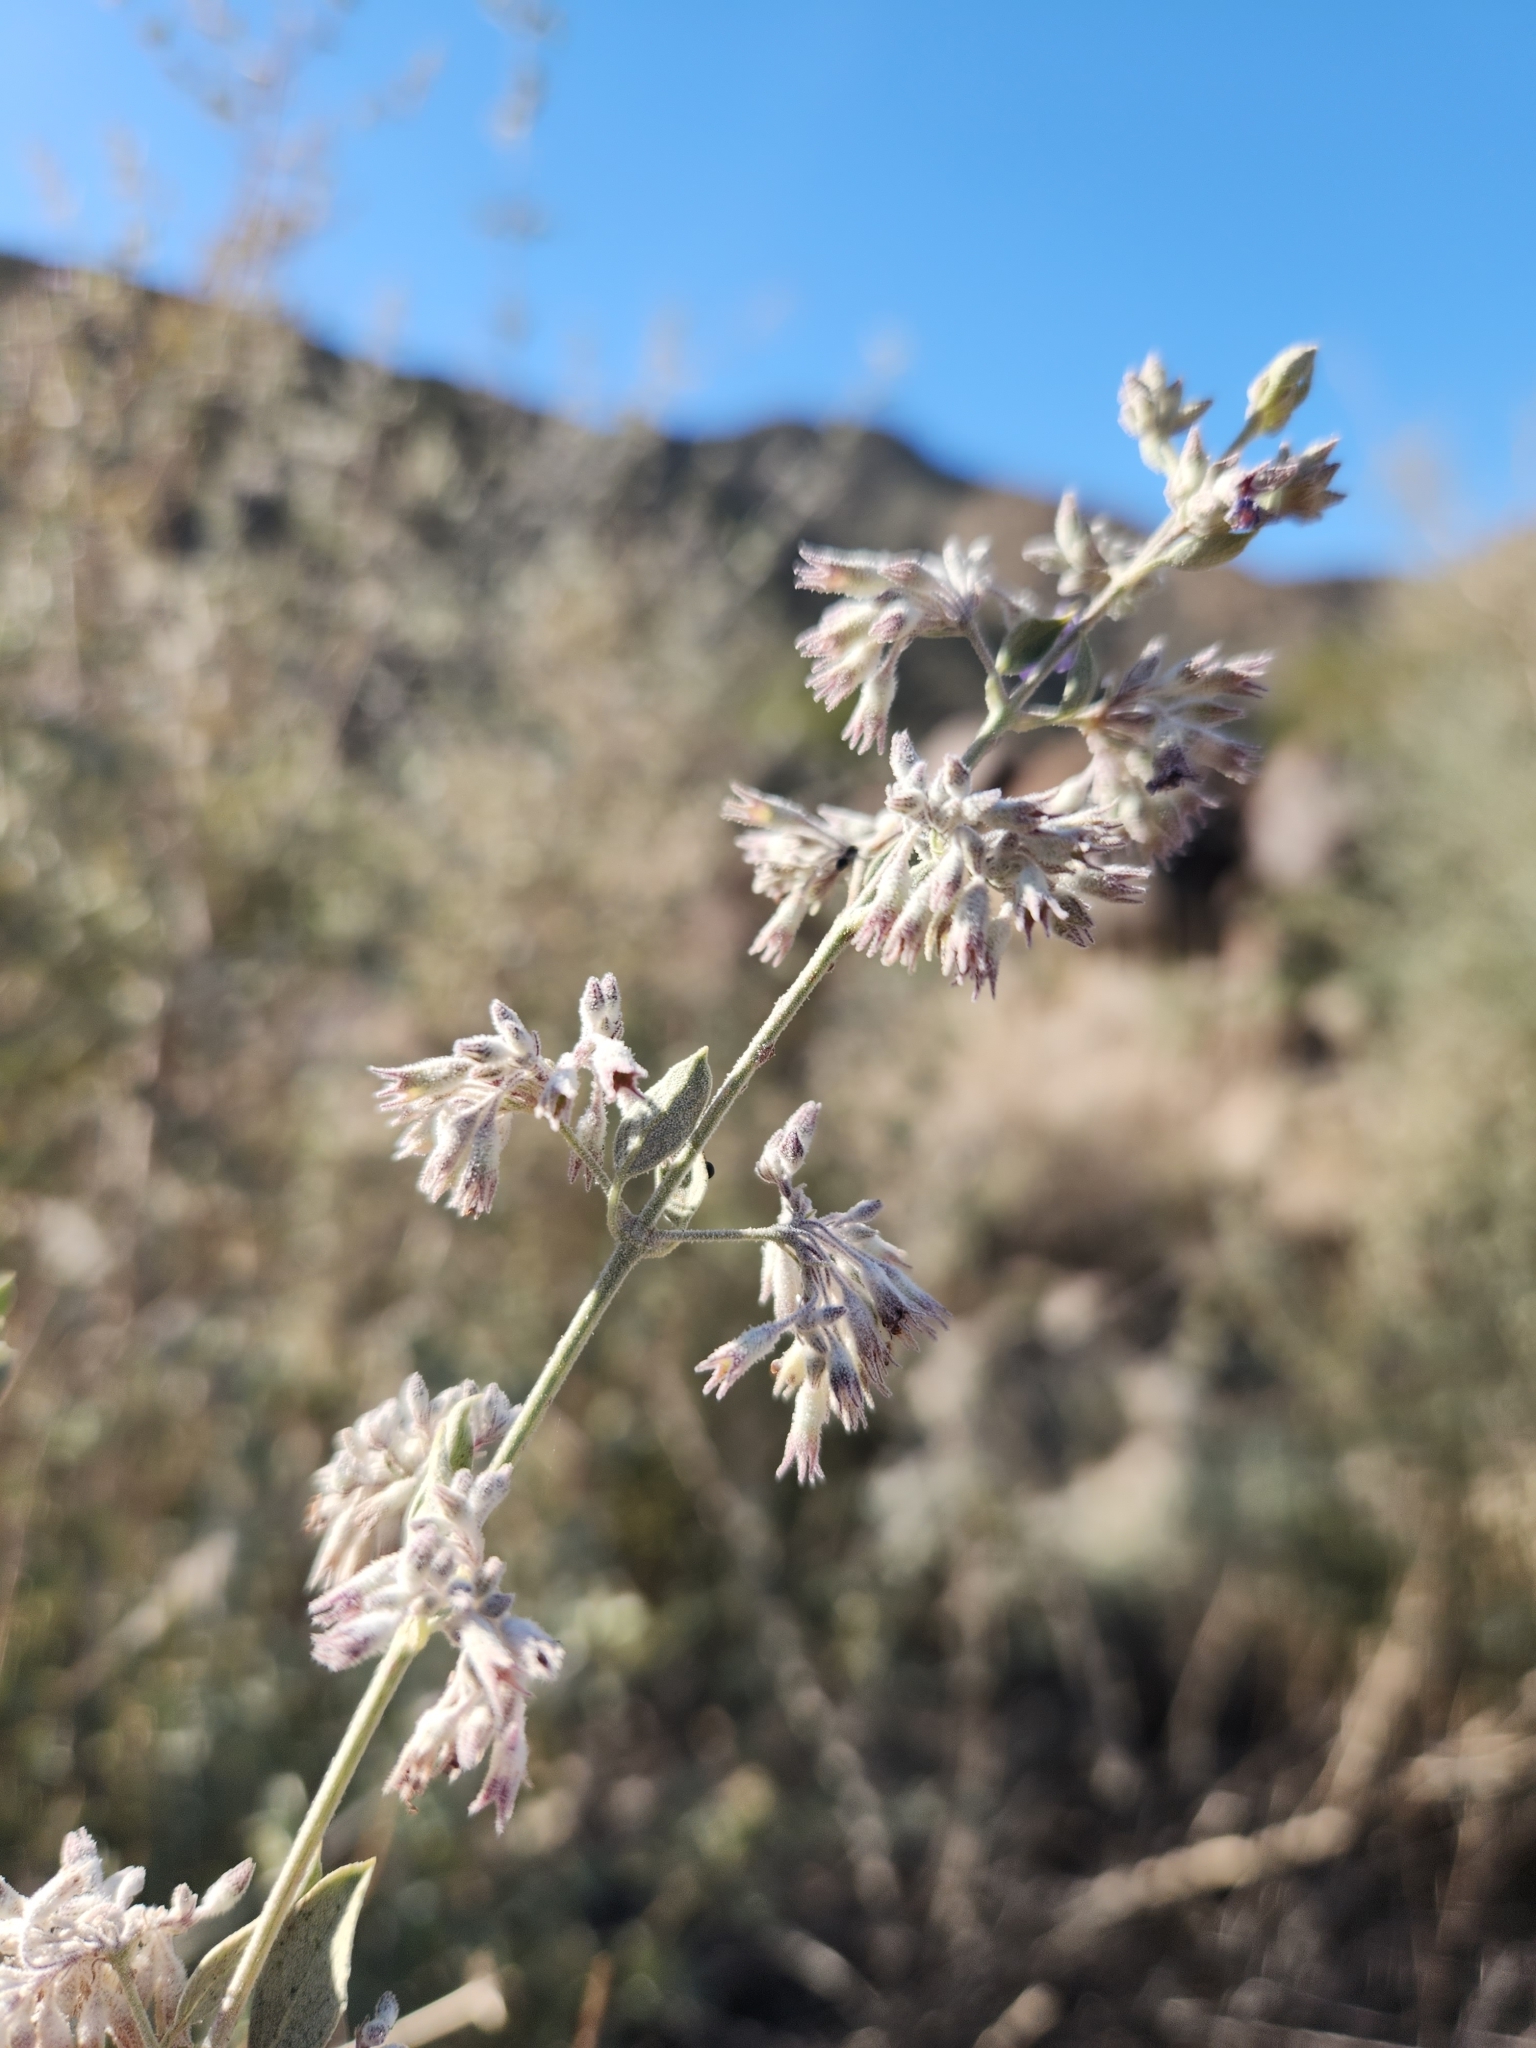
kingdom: Plantae
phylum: Tracheophyta
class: Magnoliopsida
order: Lamiales
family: Lamiaceae
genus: Condea
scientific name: Condea emoryi
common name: Chia
